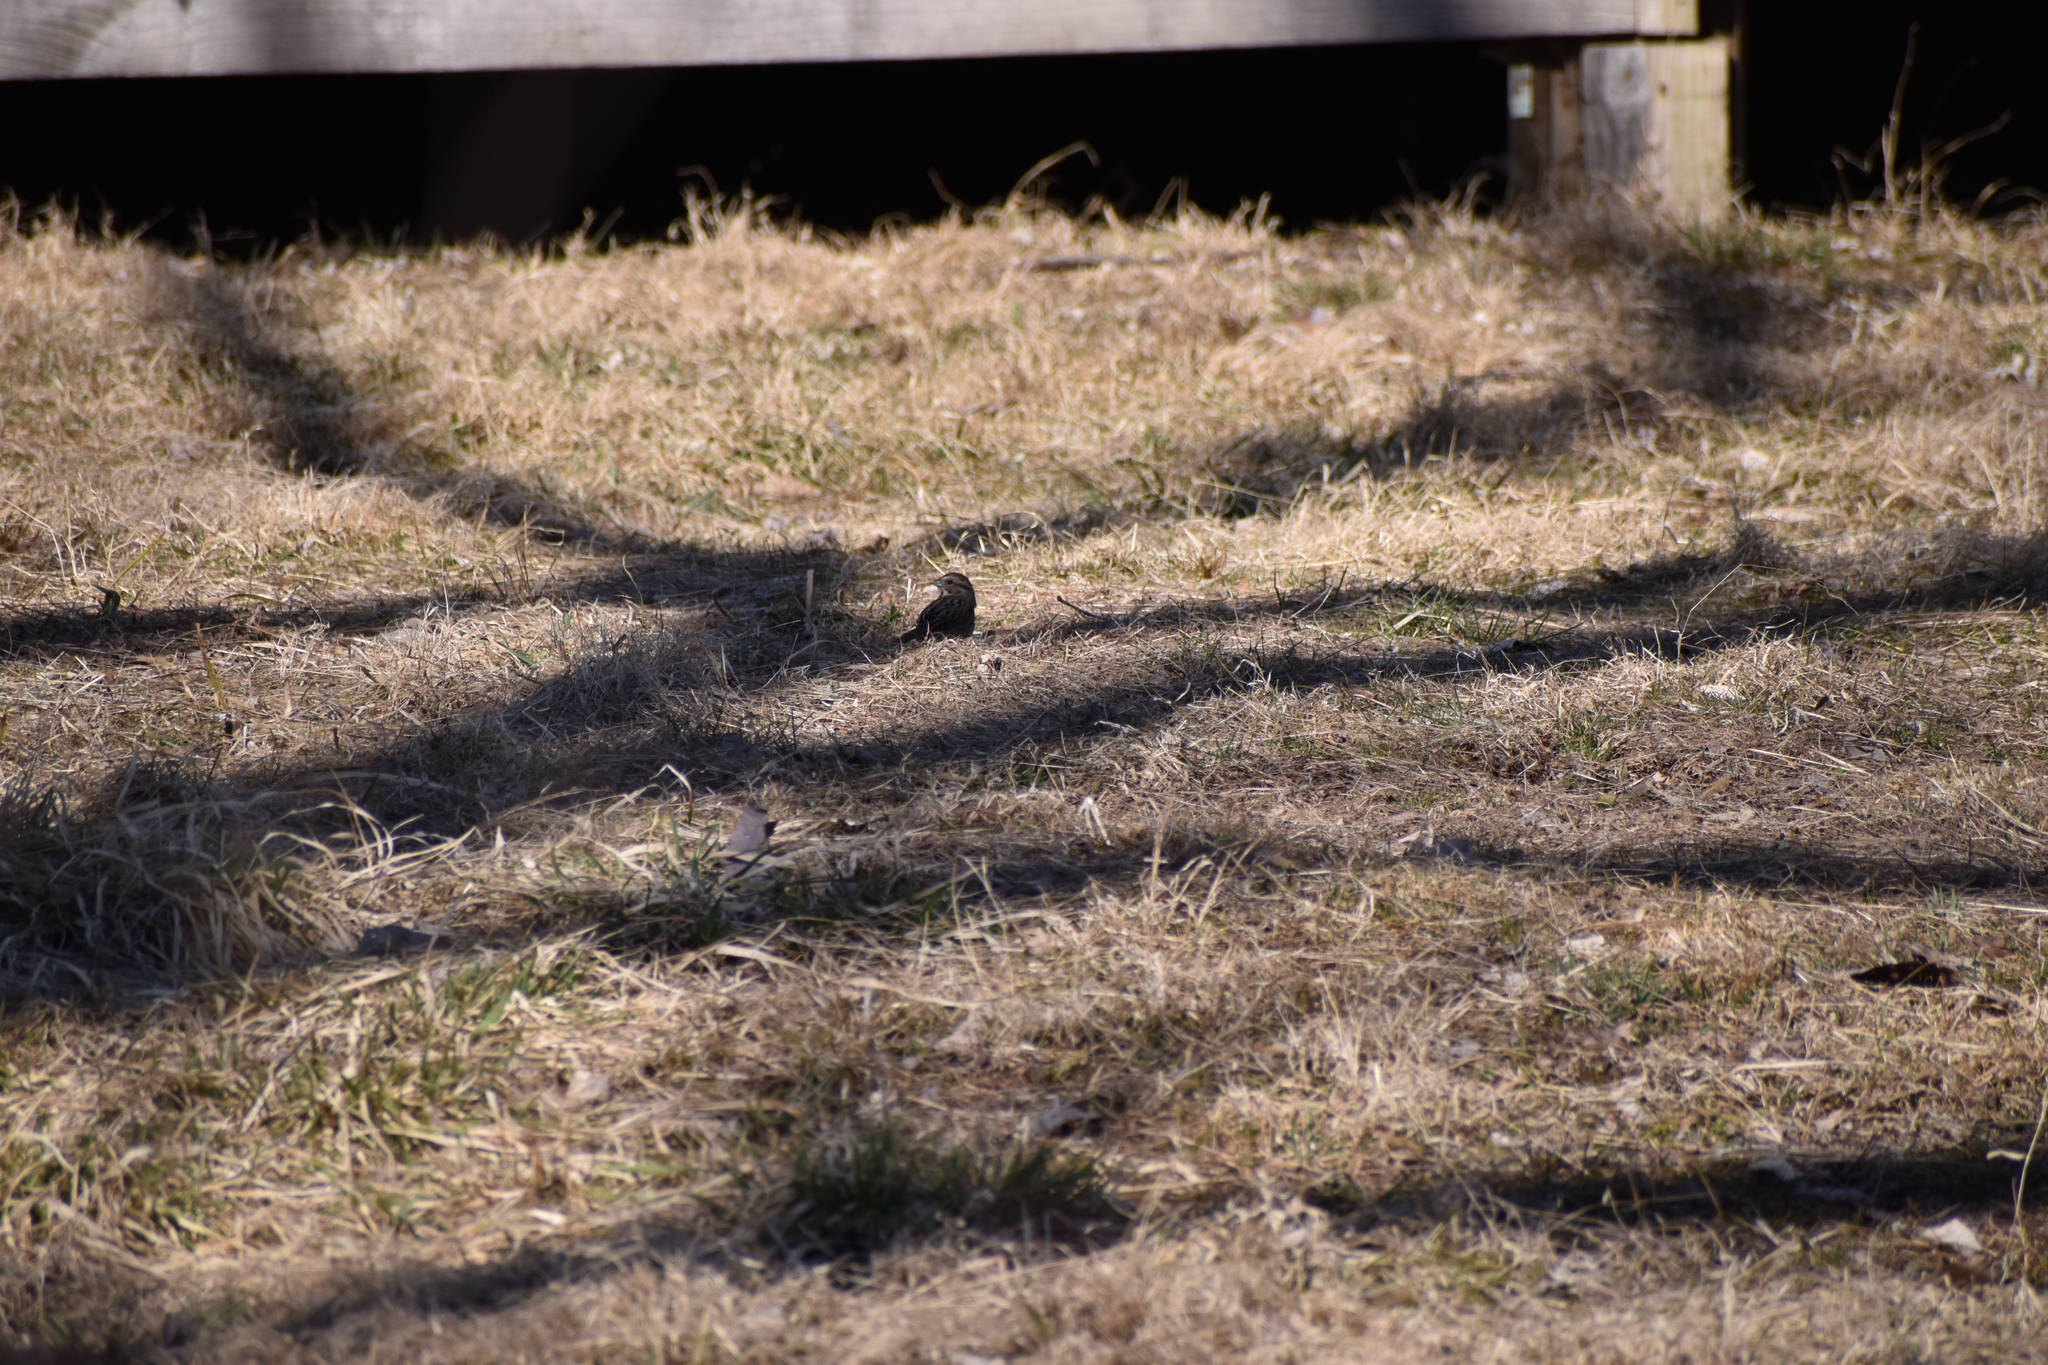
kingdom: Animalia
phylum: Chordata
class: Aves
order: Passeriformes
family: Passerellidae
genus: Melospiza
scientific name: Melospiza melodia
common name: Song sparrow
